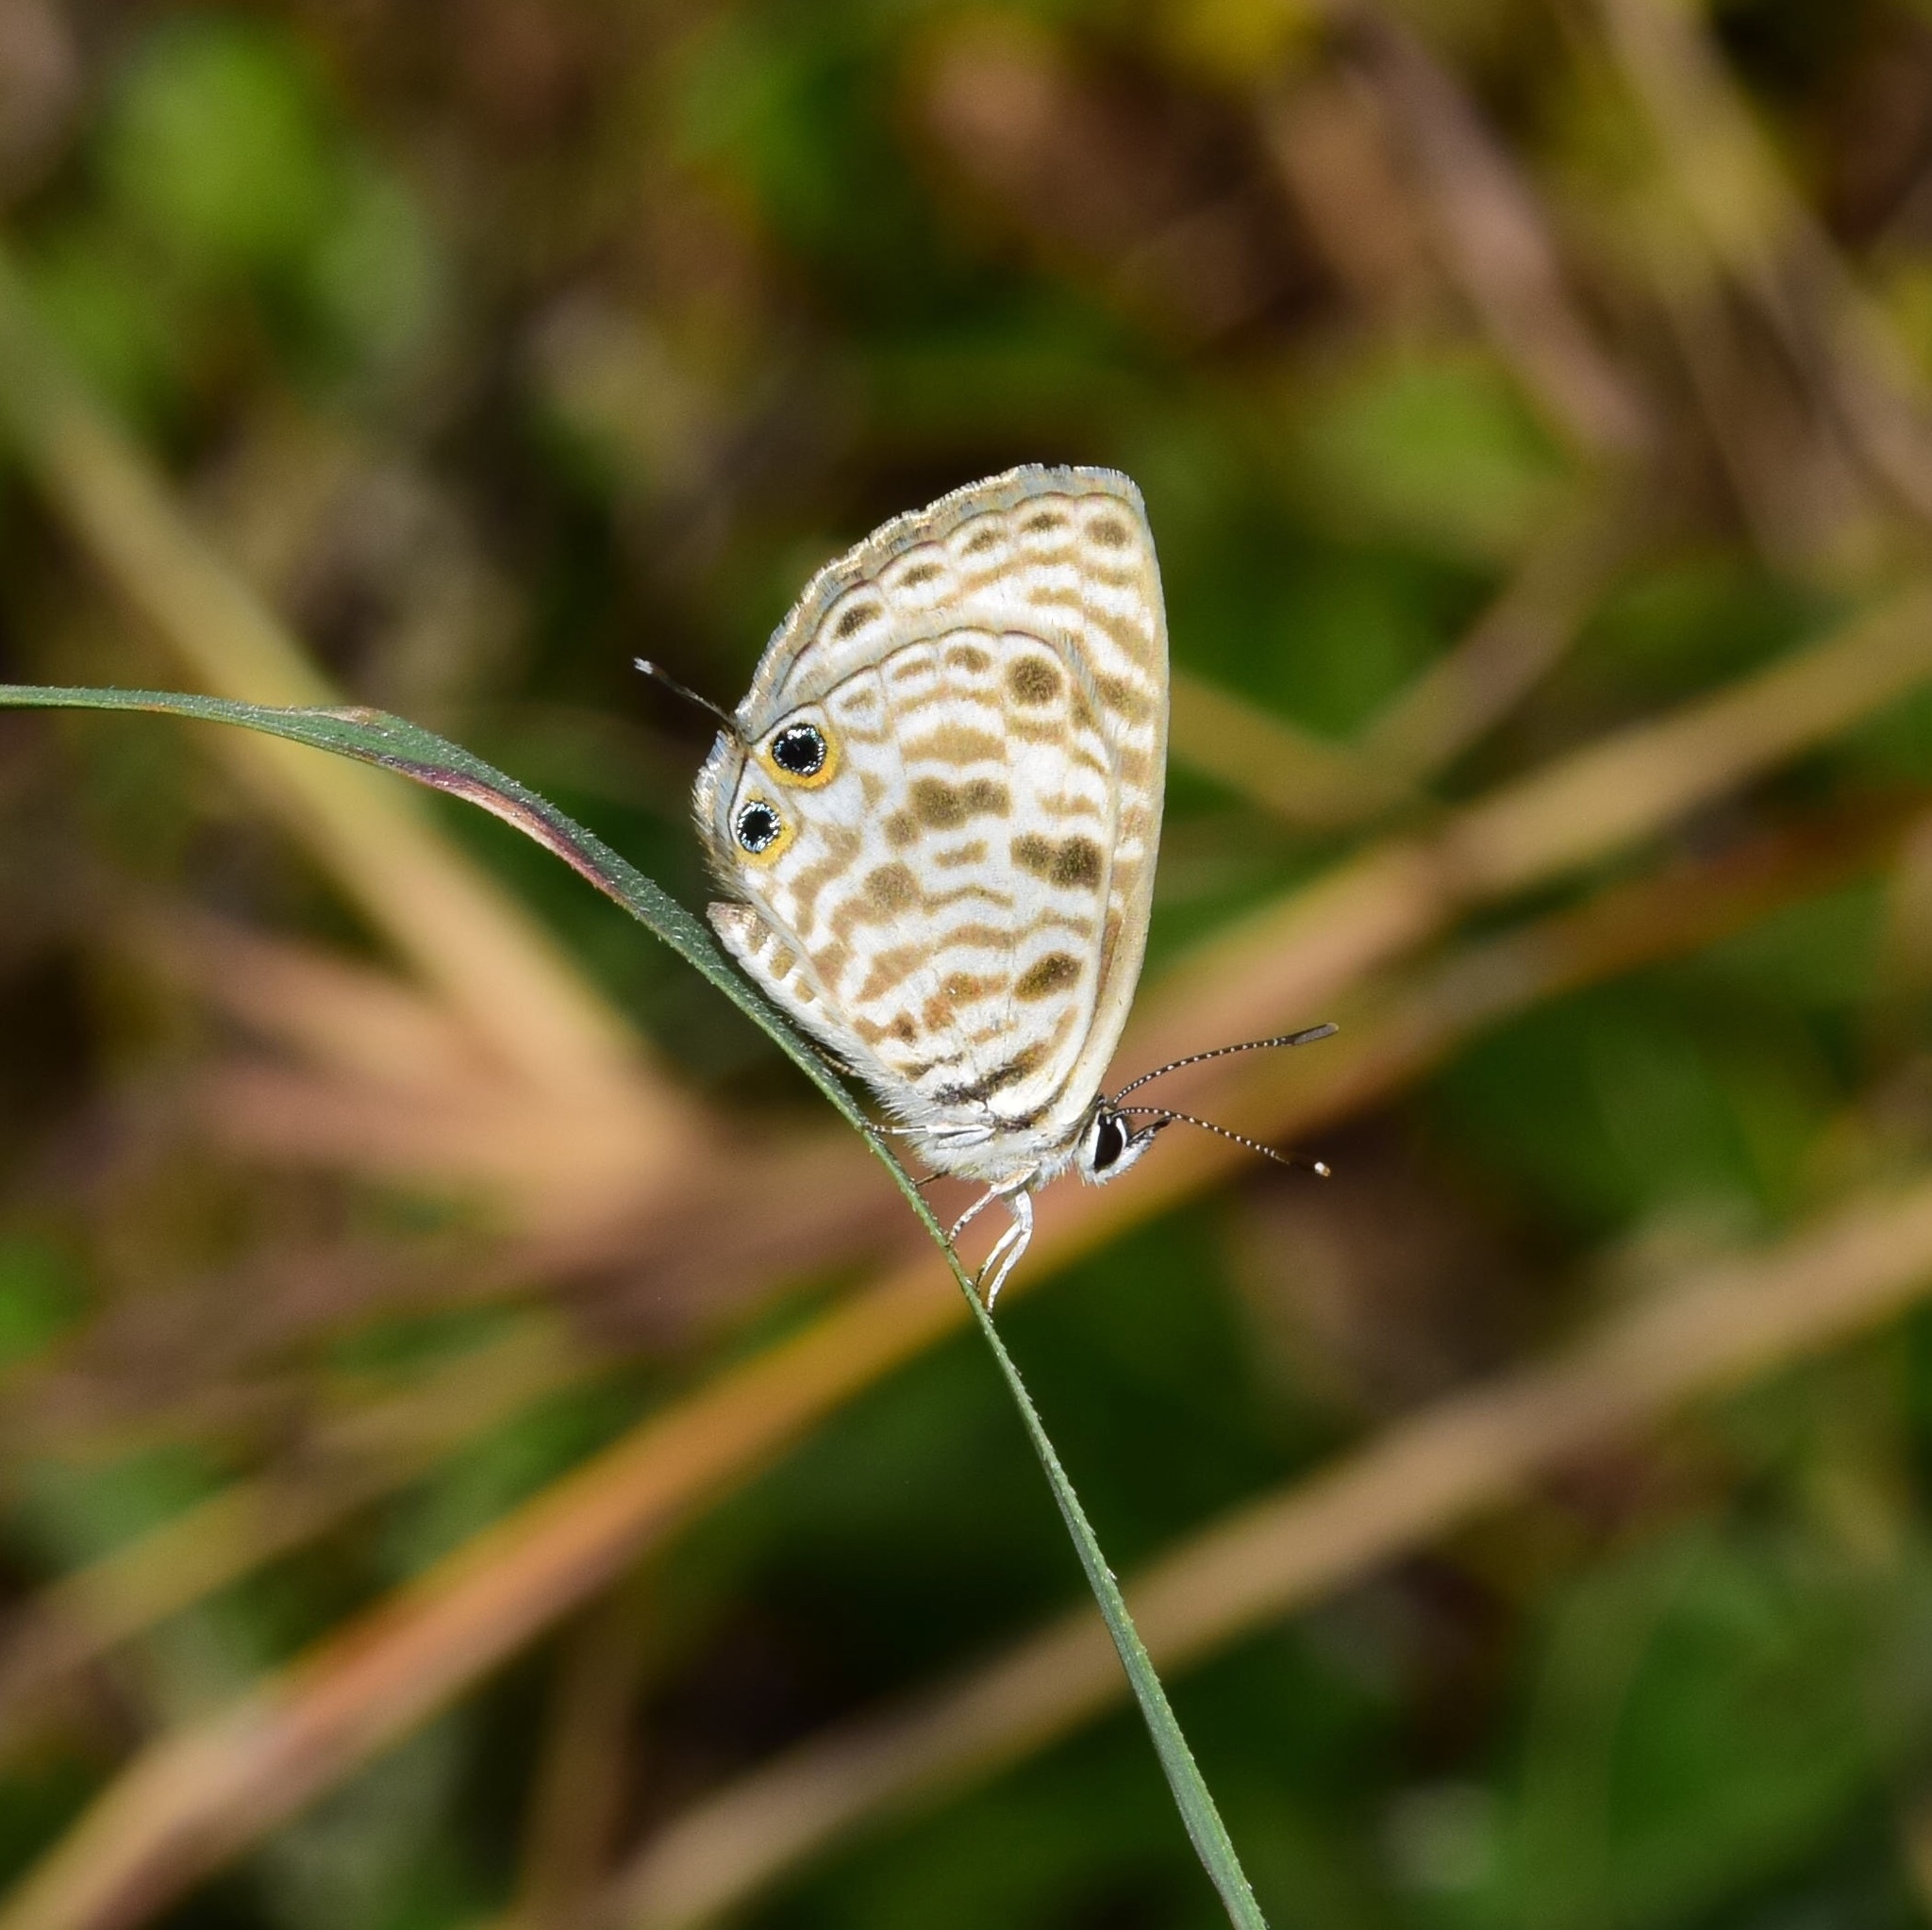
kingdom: Animalia
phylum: Arthropoda
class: Insecta
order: Lepidoptera
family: Lycaenidae
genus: Leptotes
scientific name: Leptotes
